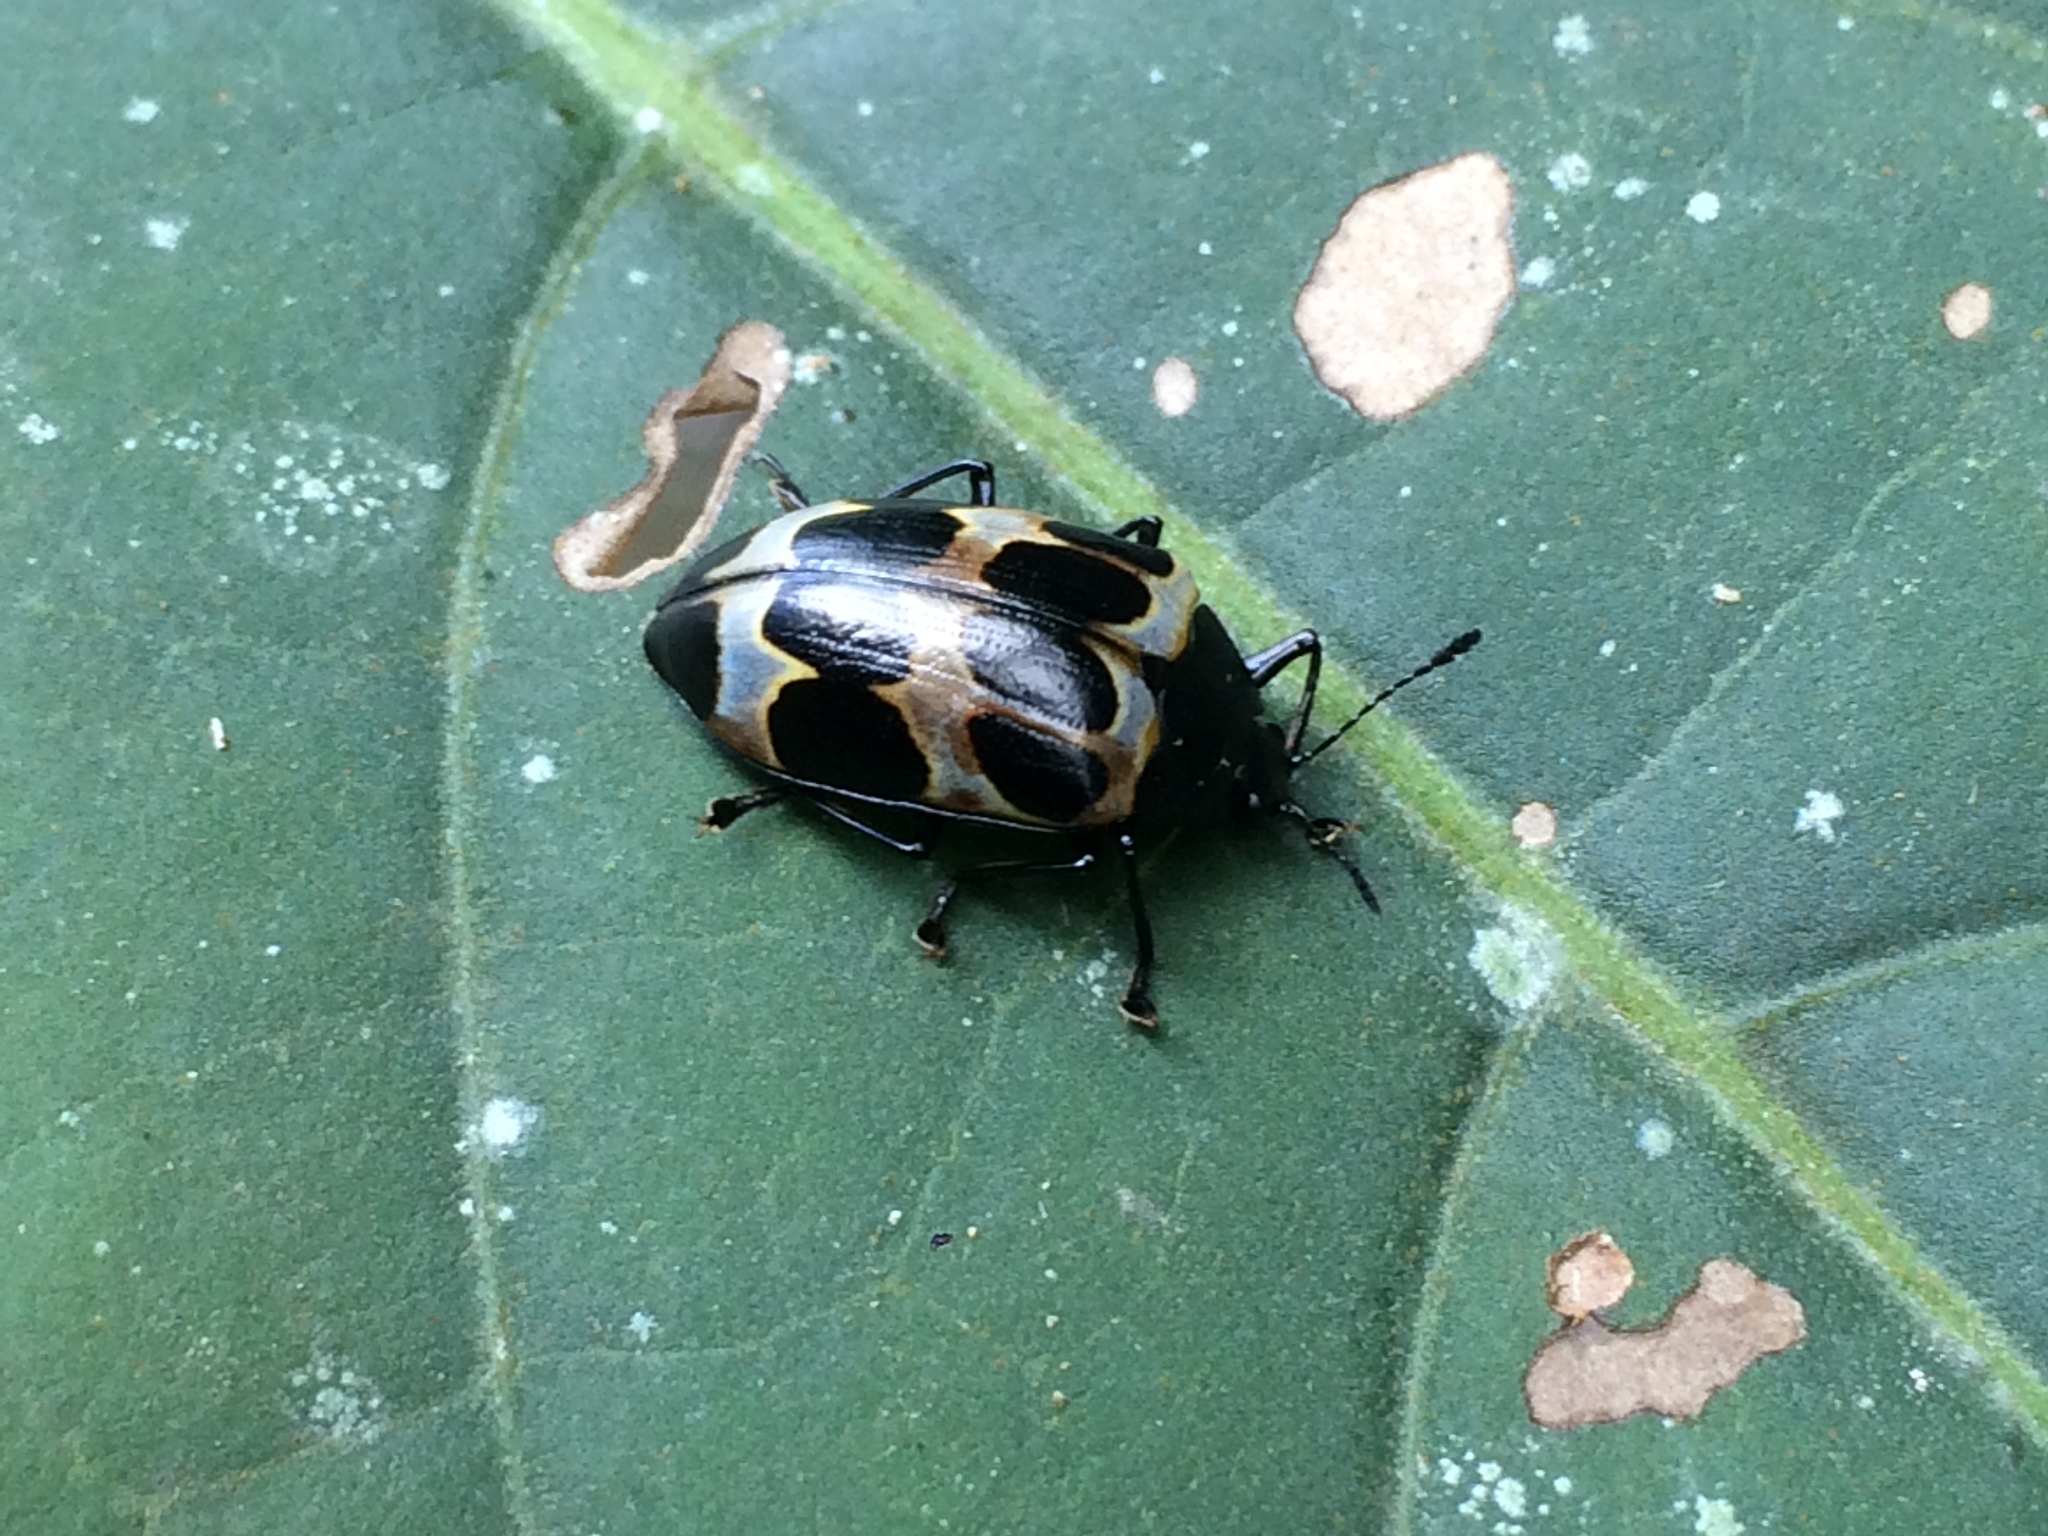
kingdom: Animalia
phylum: Arthropoda
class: Insecta
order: Coleoptera
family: Erotylidae
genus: Oligocorynus
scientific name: Oligocorynus
